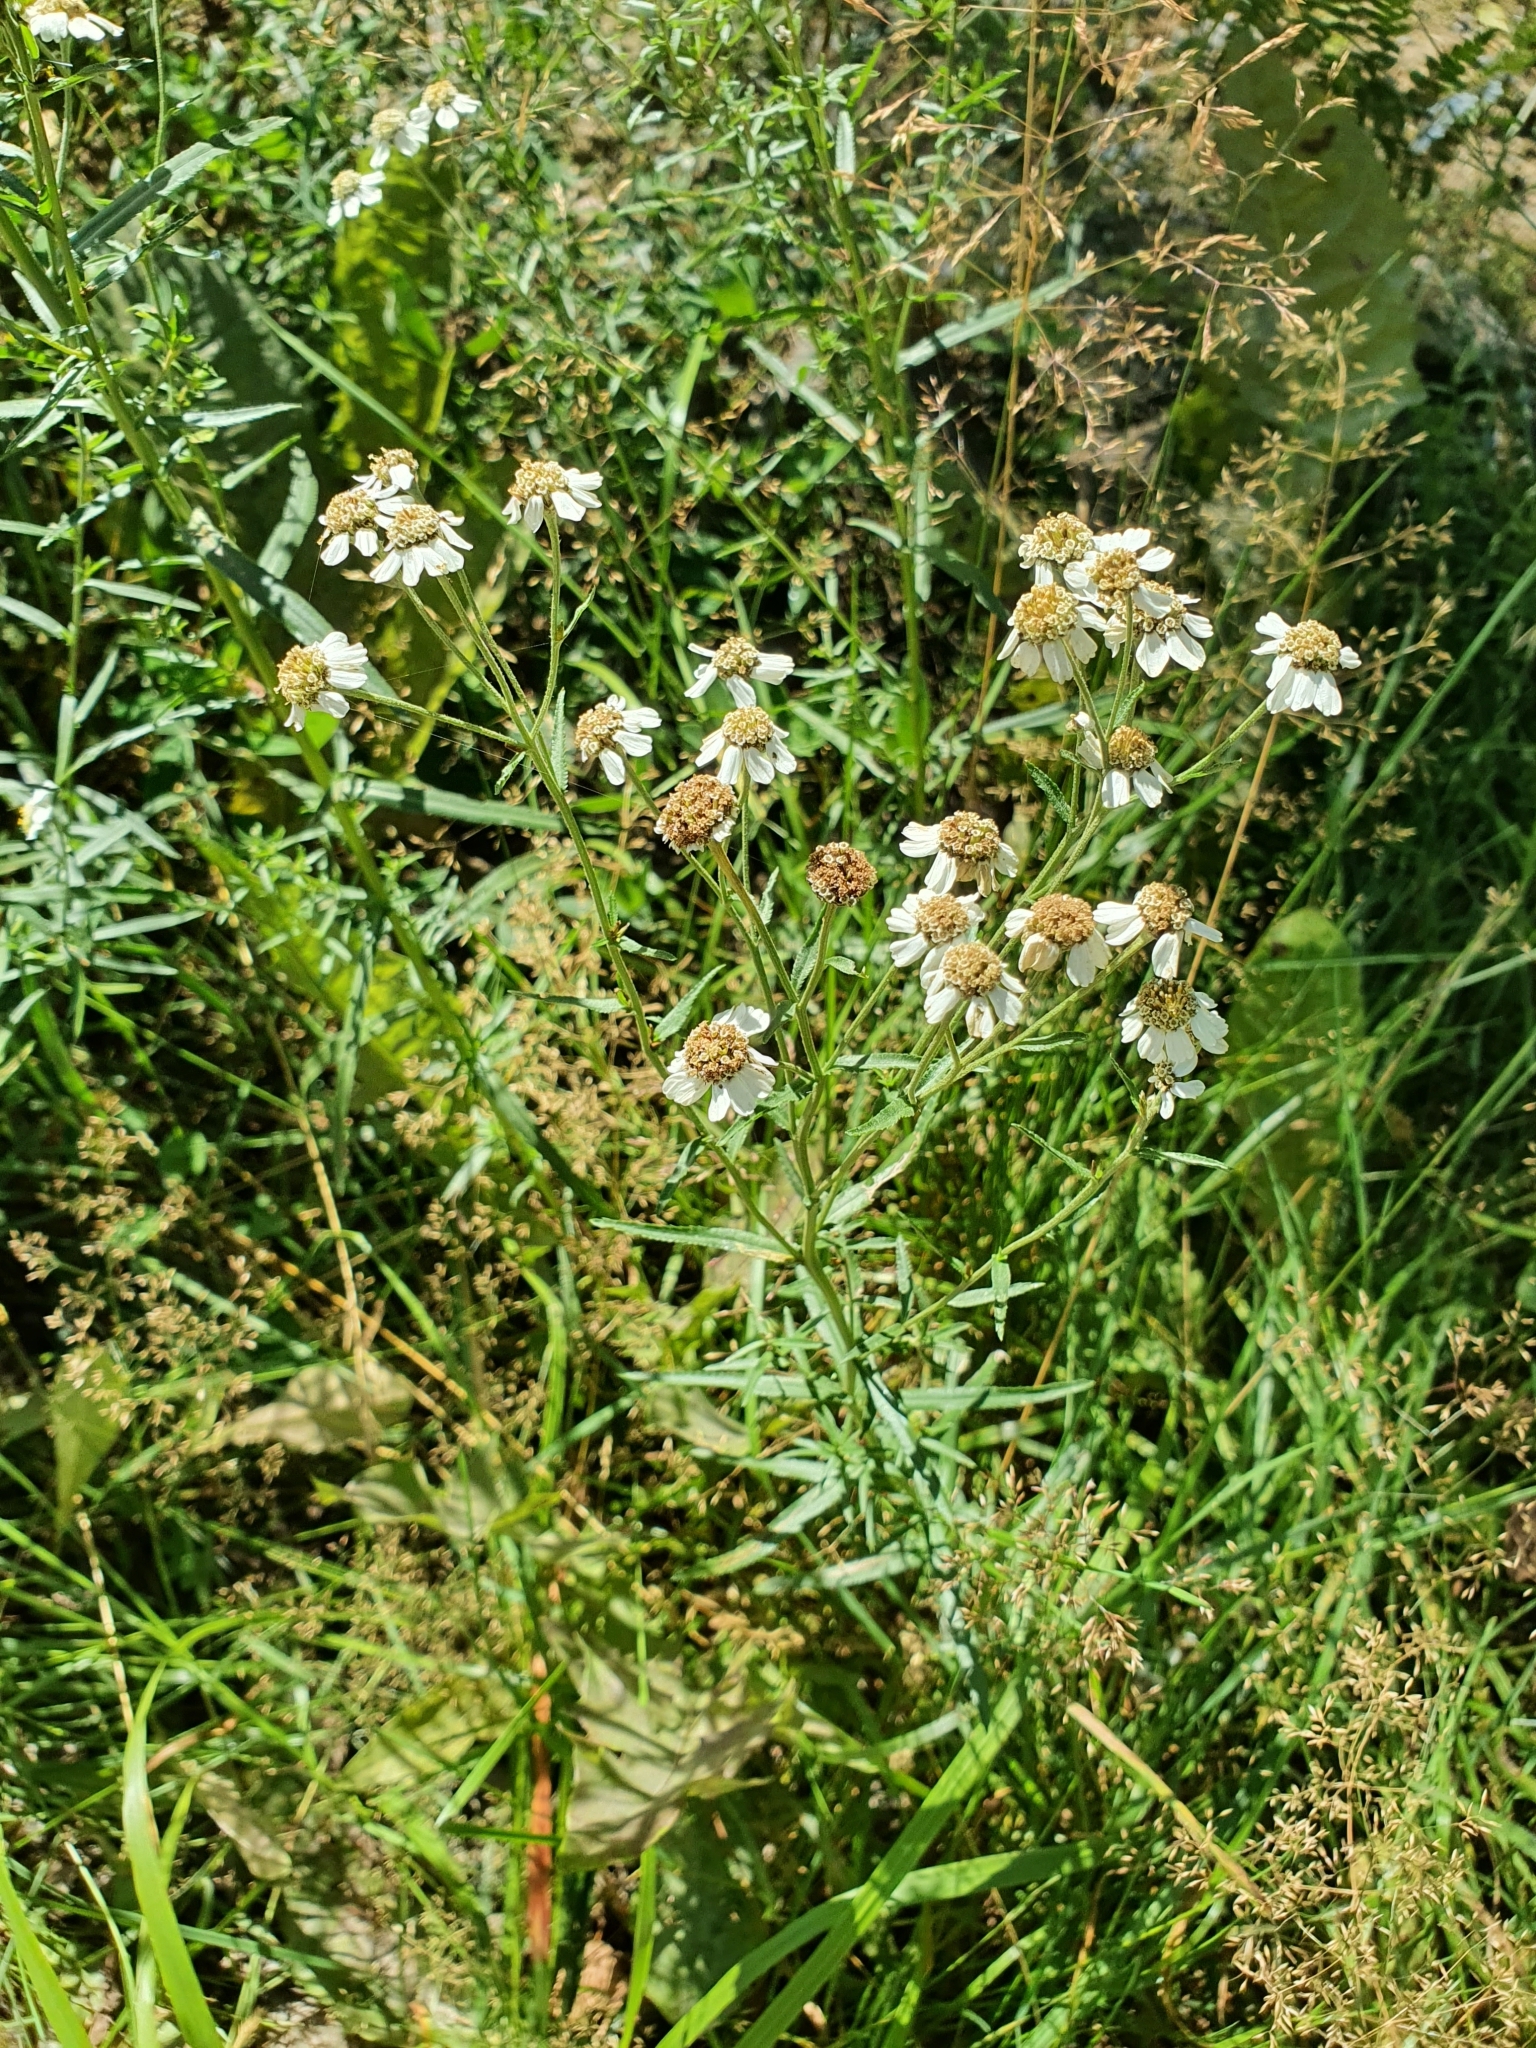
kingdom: Plantae
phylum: Tracheophyta
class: Magnoliopsida
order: Asterales
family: Asteraceae
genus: Achillea
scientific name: Achillea ptarmica
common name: Sneezeweed
